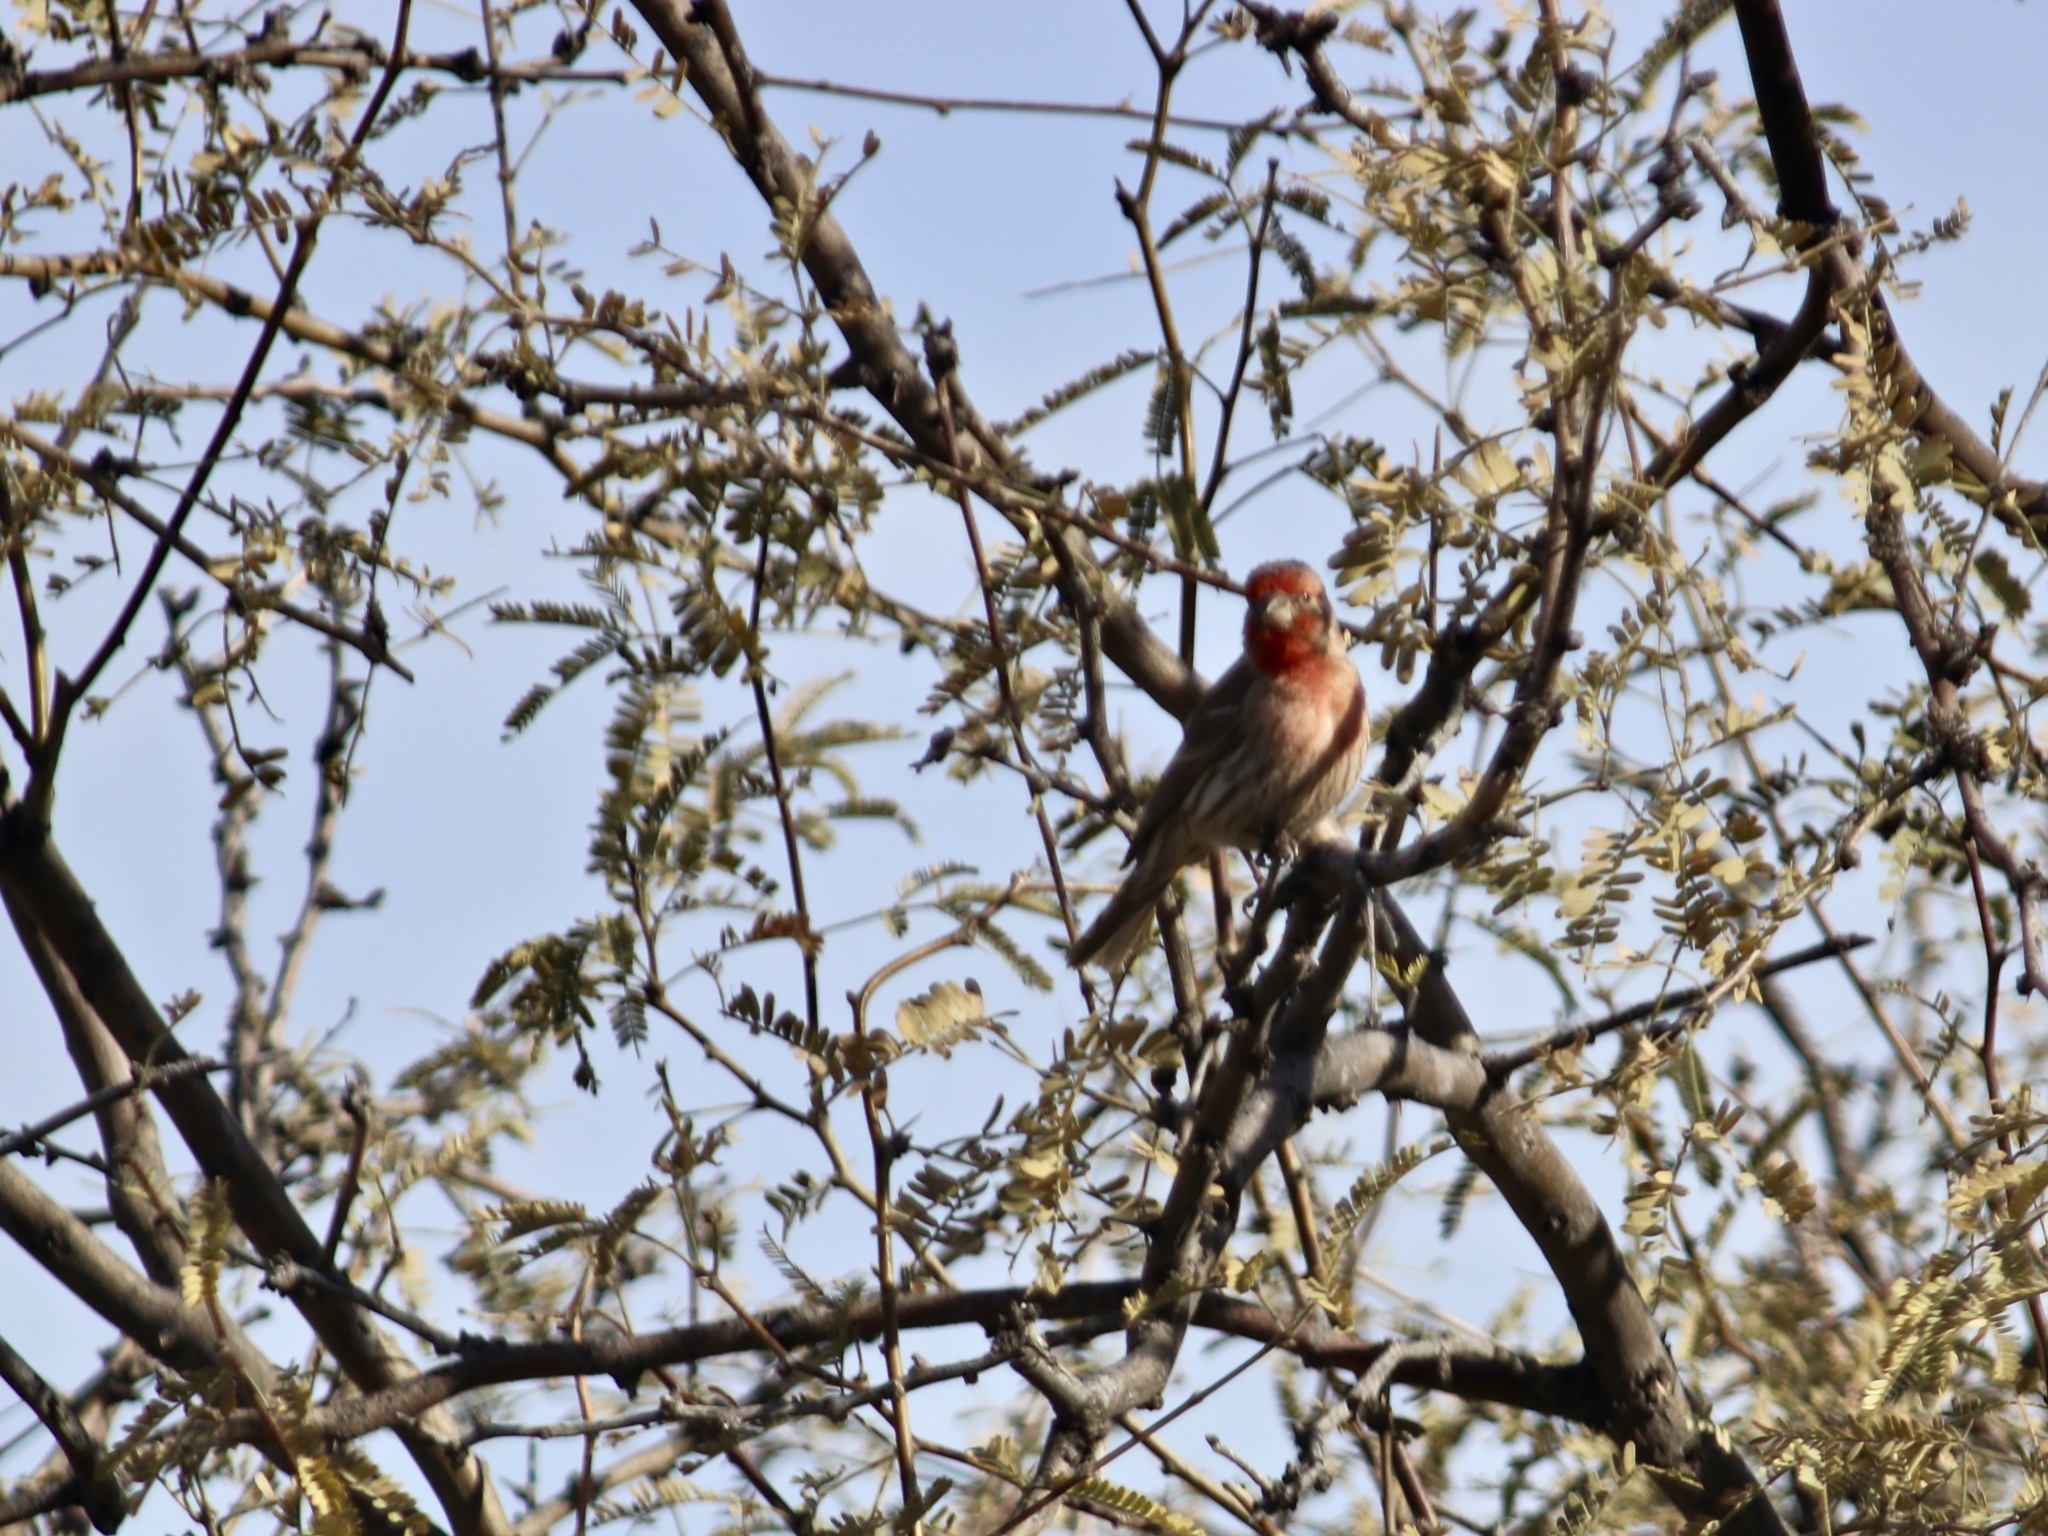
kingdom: Animalia
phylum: Chordata
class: Aves
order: Passeriformes
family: Fringillidae
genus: Haemorhous
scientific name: Haemorhous mexicanus
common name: House finch
